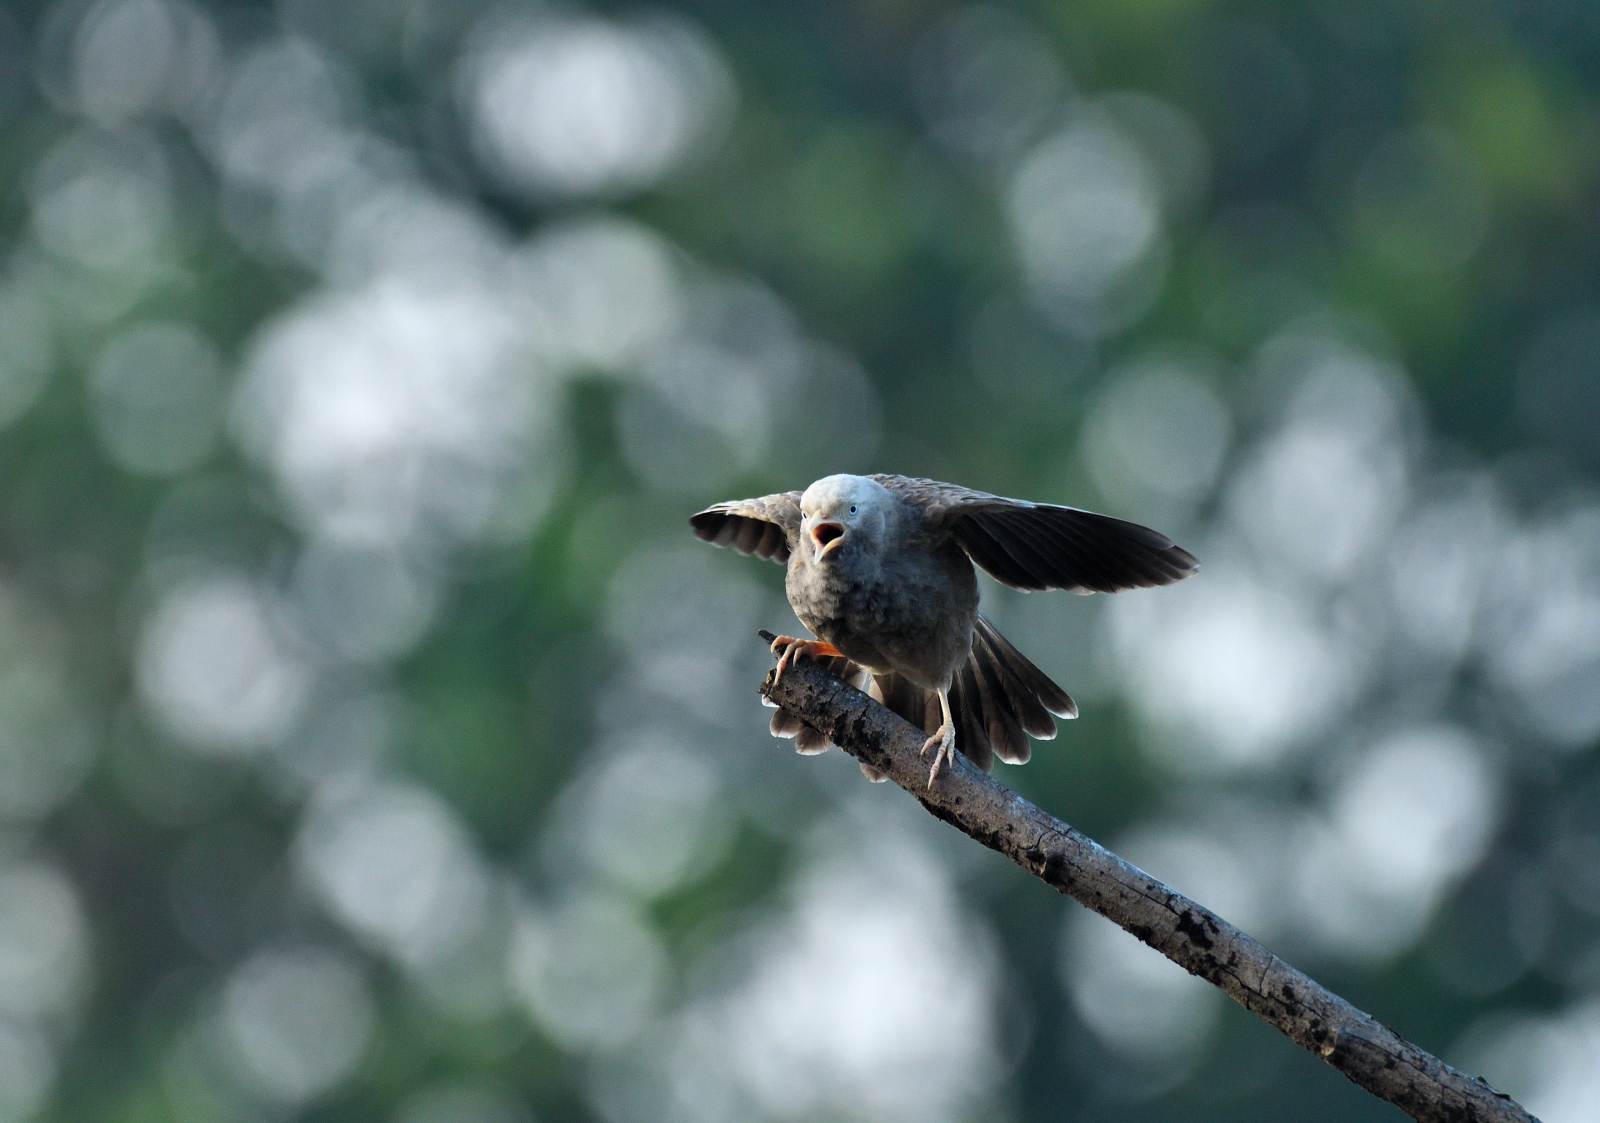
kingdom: Animalia
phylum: Chordata
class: Aves
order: Passeriformes
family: Leiothrichidae
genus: Turdoides
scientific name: Turdoides affinis
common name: Yellow-billed babbler
